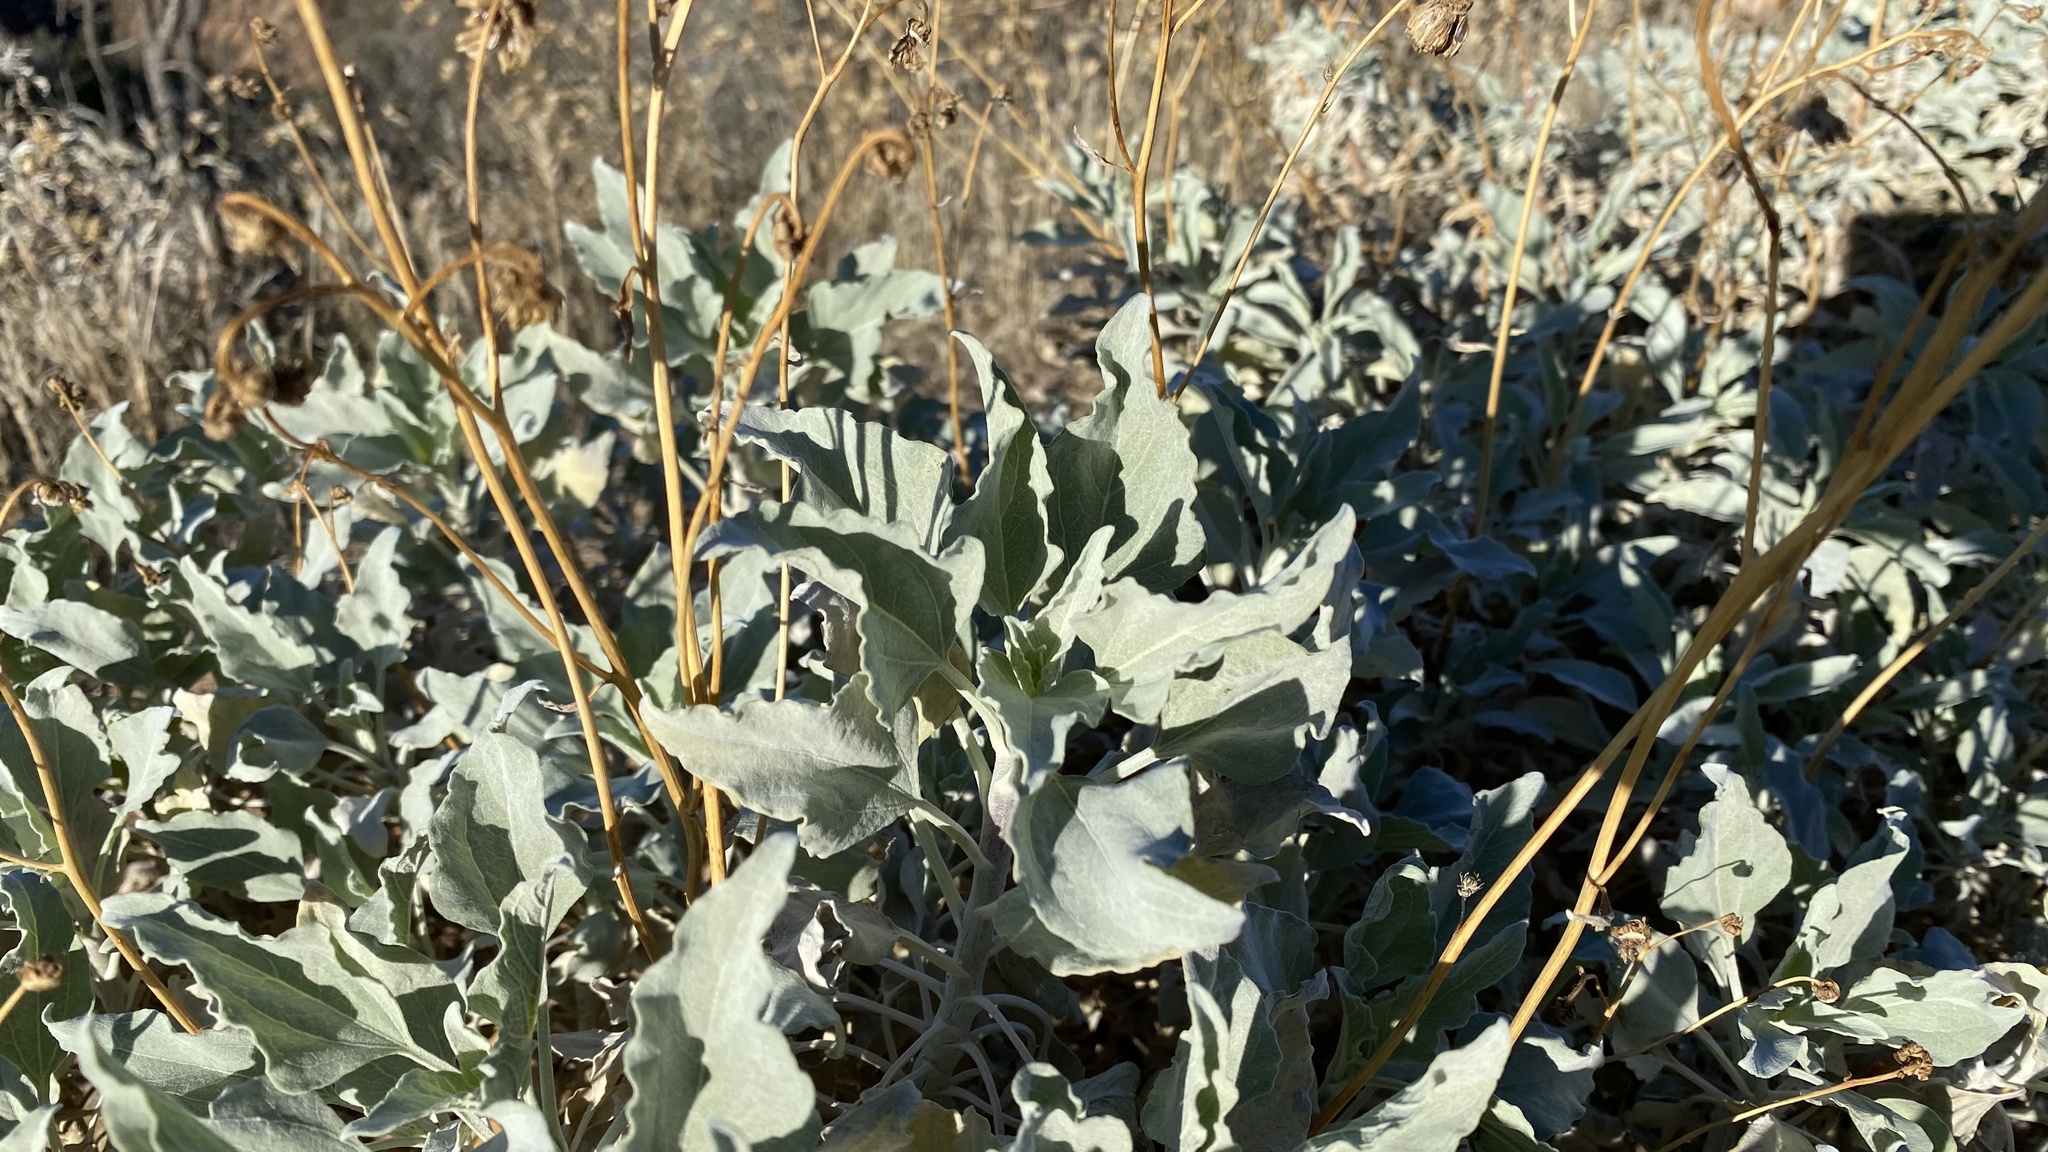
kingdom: Plantae
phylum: Tracheophyta
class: Magnoliopsida
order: Asterales
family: Asteraceae
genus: Encelia
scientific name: Encelia farinosa
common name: Brittlebush
